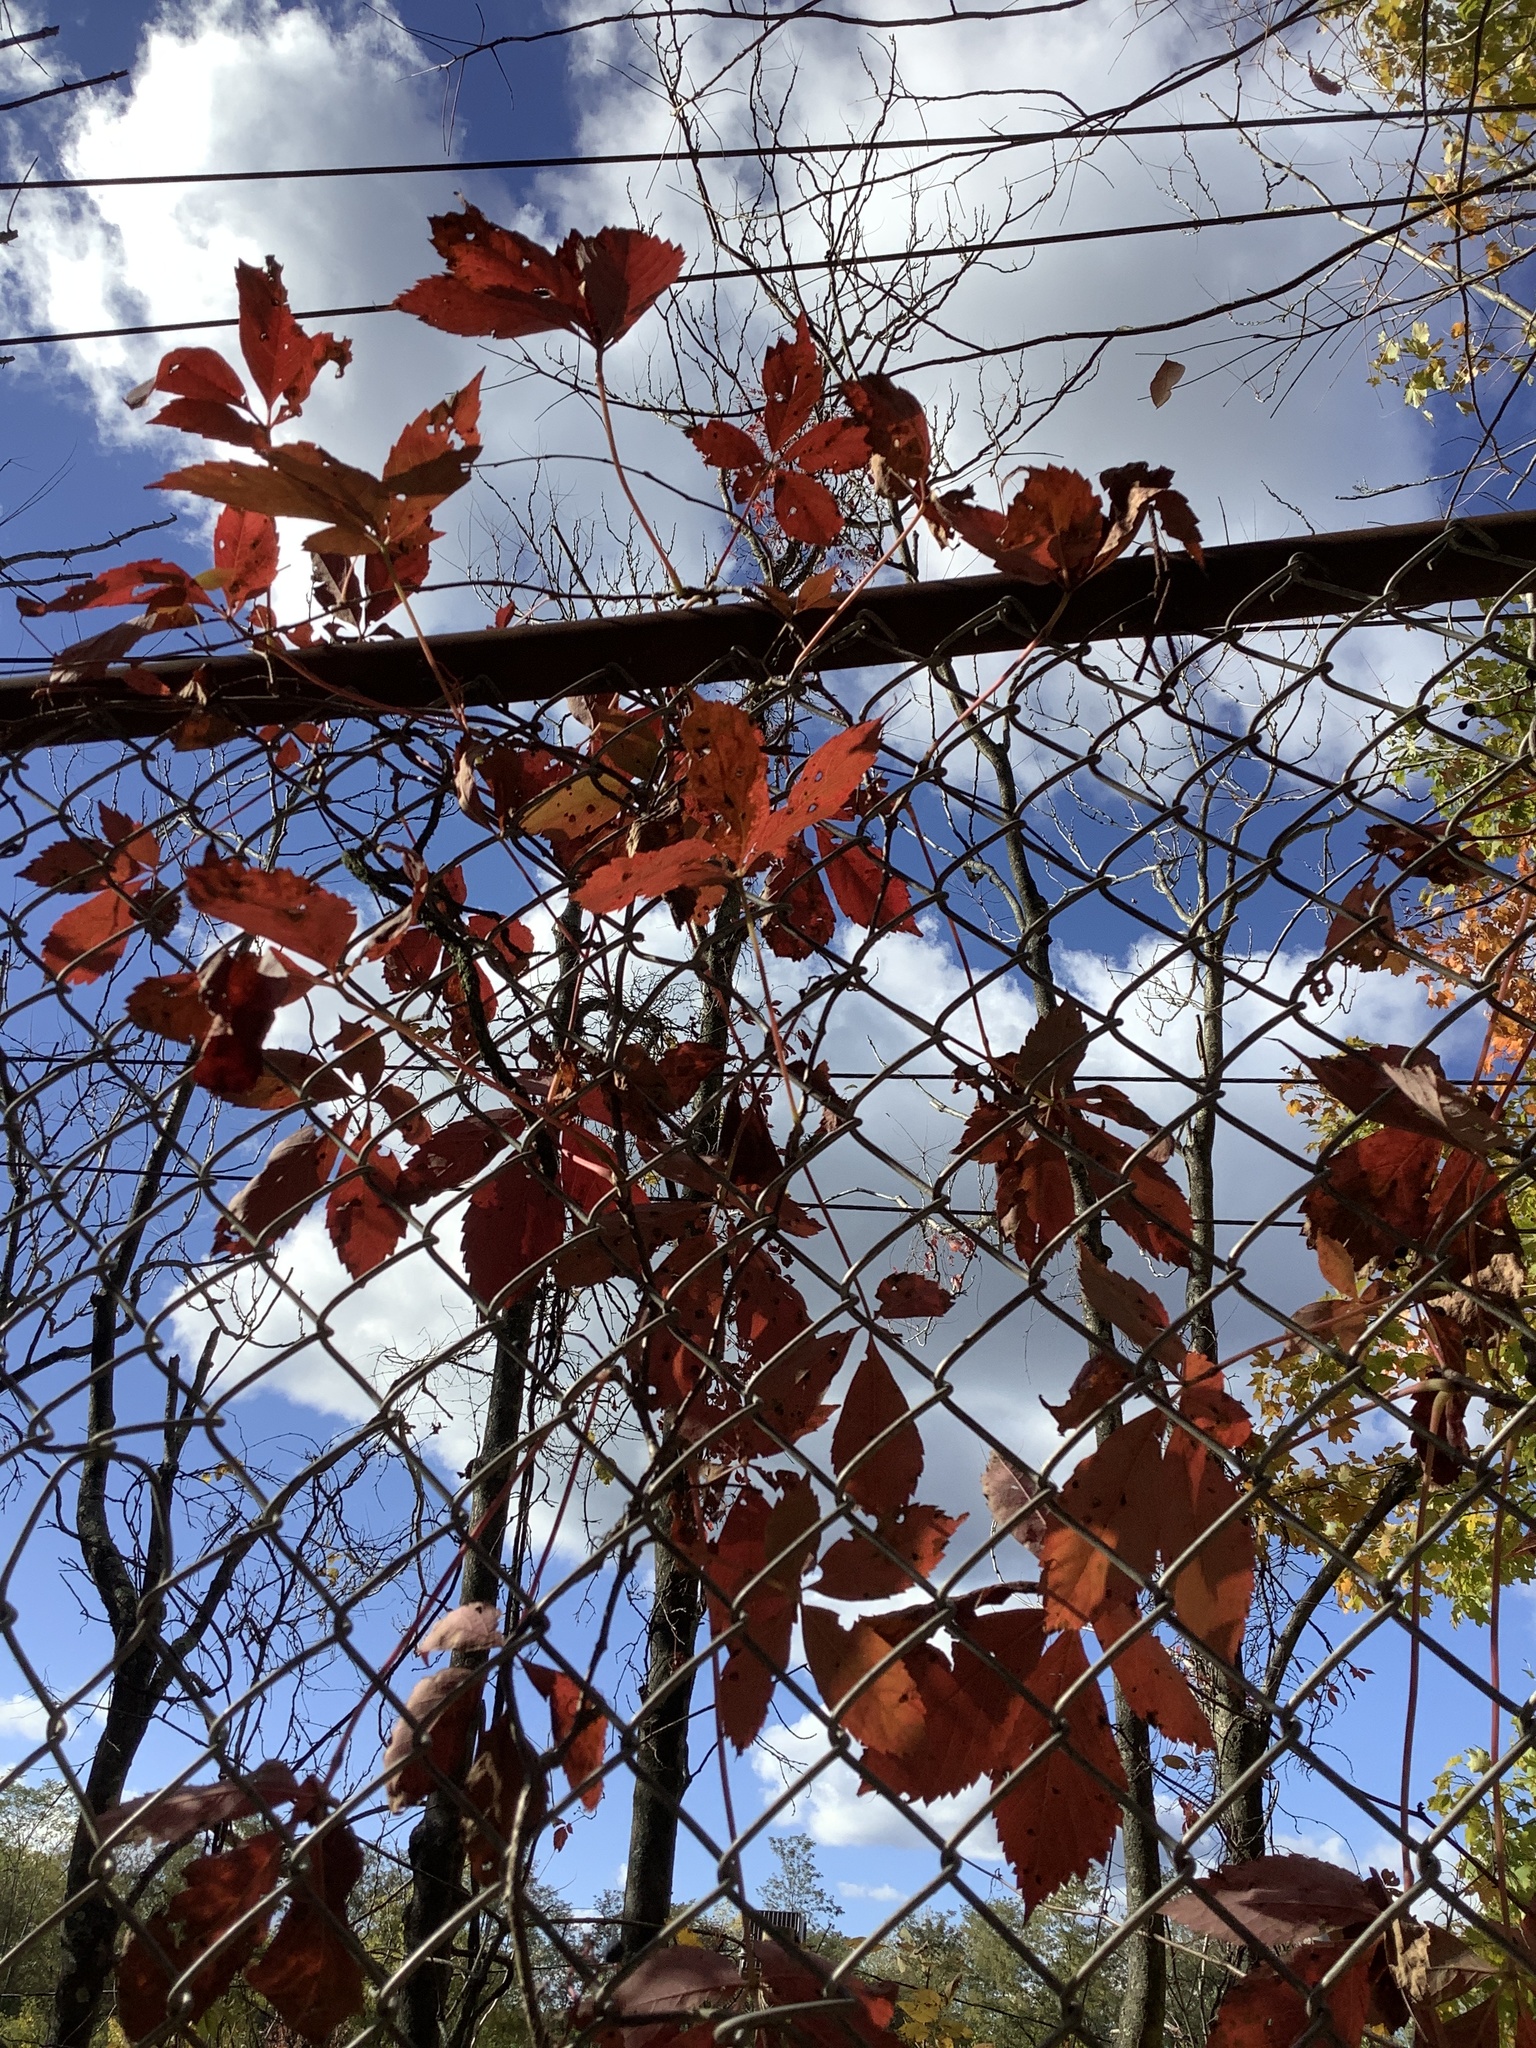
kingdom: Plantae
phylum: Tracheophyta
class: Magnoliopsida
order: Vitales
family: Vitaceae
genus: Parthenocissus
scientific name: Parthenocissus quinquefolia
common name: Virginia-creeper
